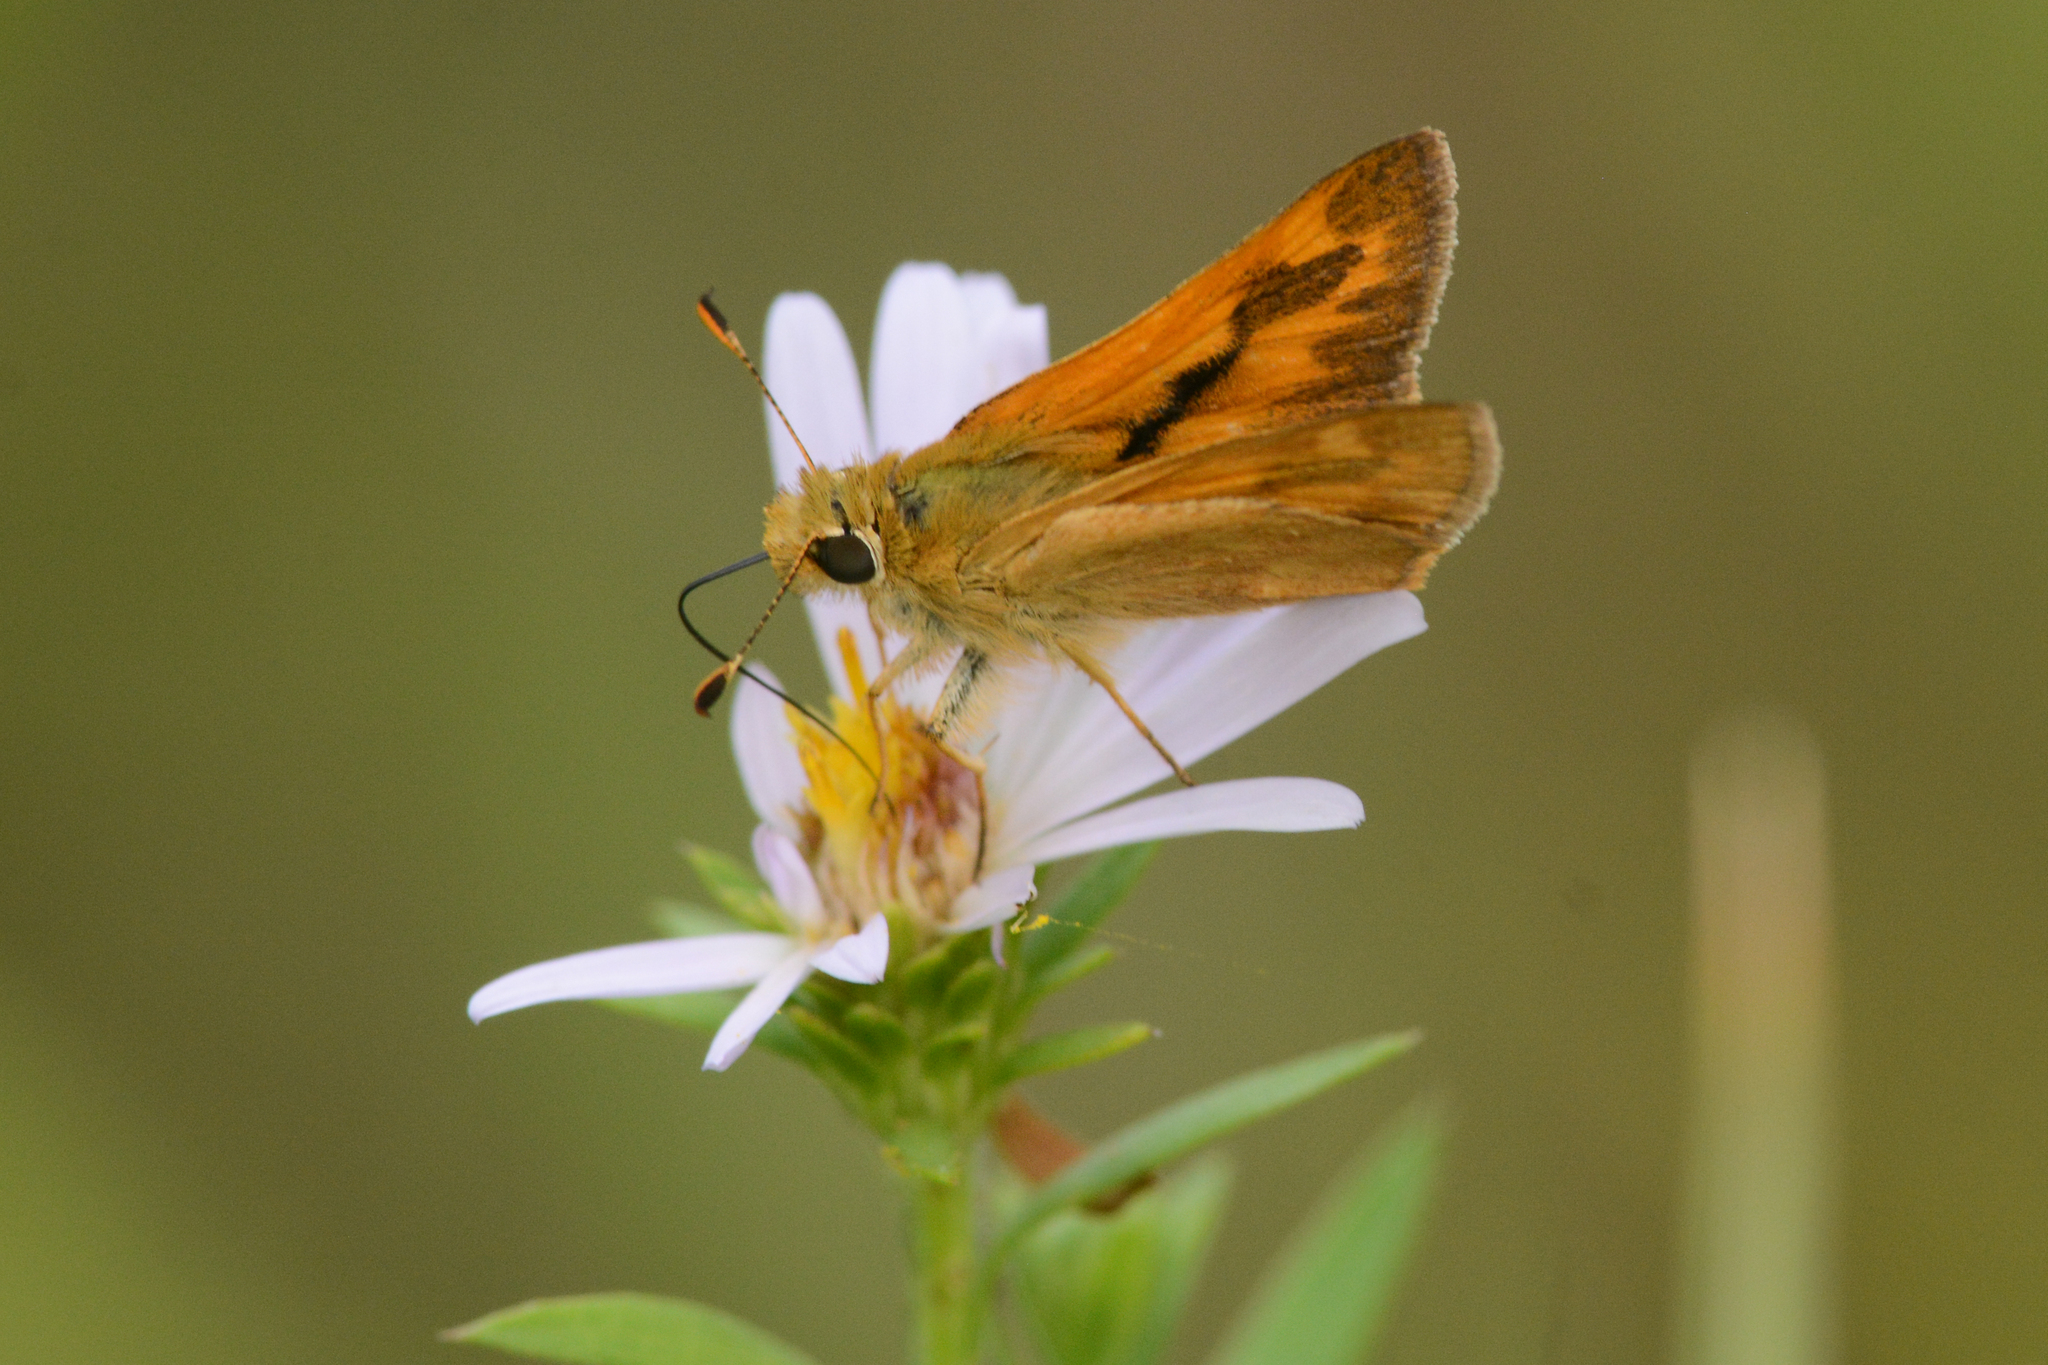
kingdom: Animalia
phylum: Arthropoda
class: Insecta
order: Lepidoptera
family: Hesperiidae
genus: Ochlodes
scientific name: Ochlodes sylvanoides
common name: Woodland skipper
